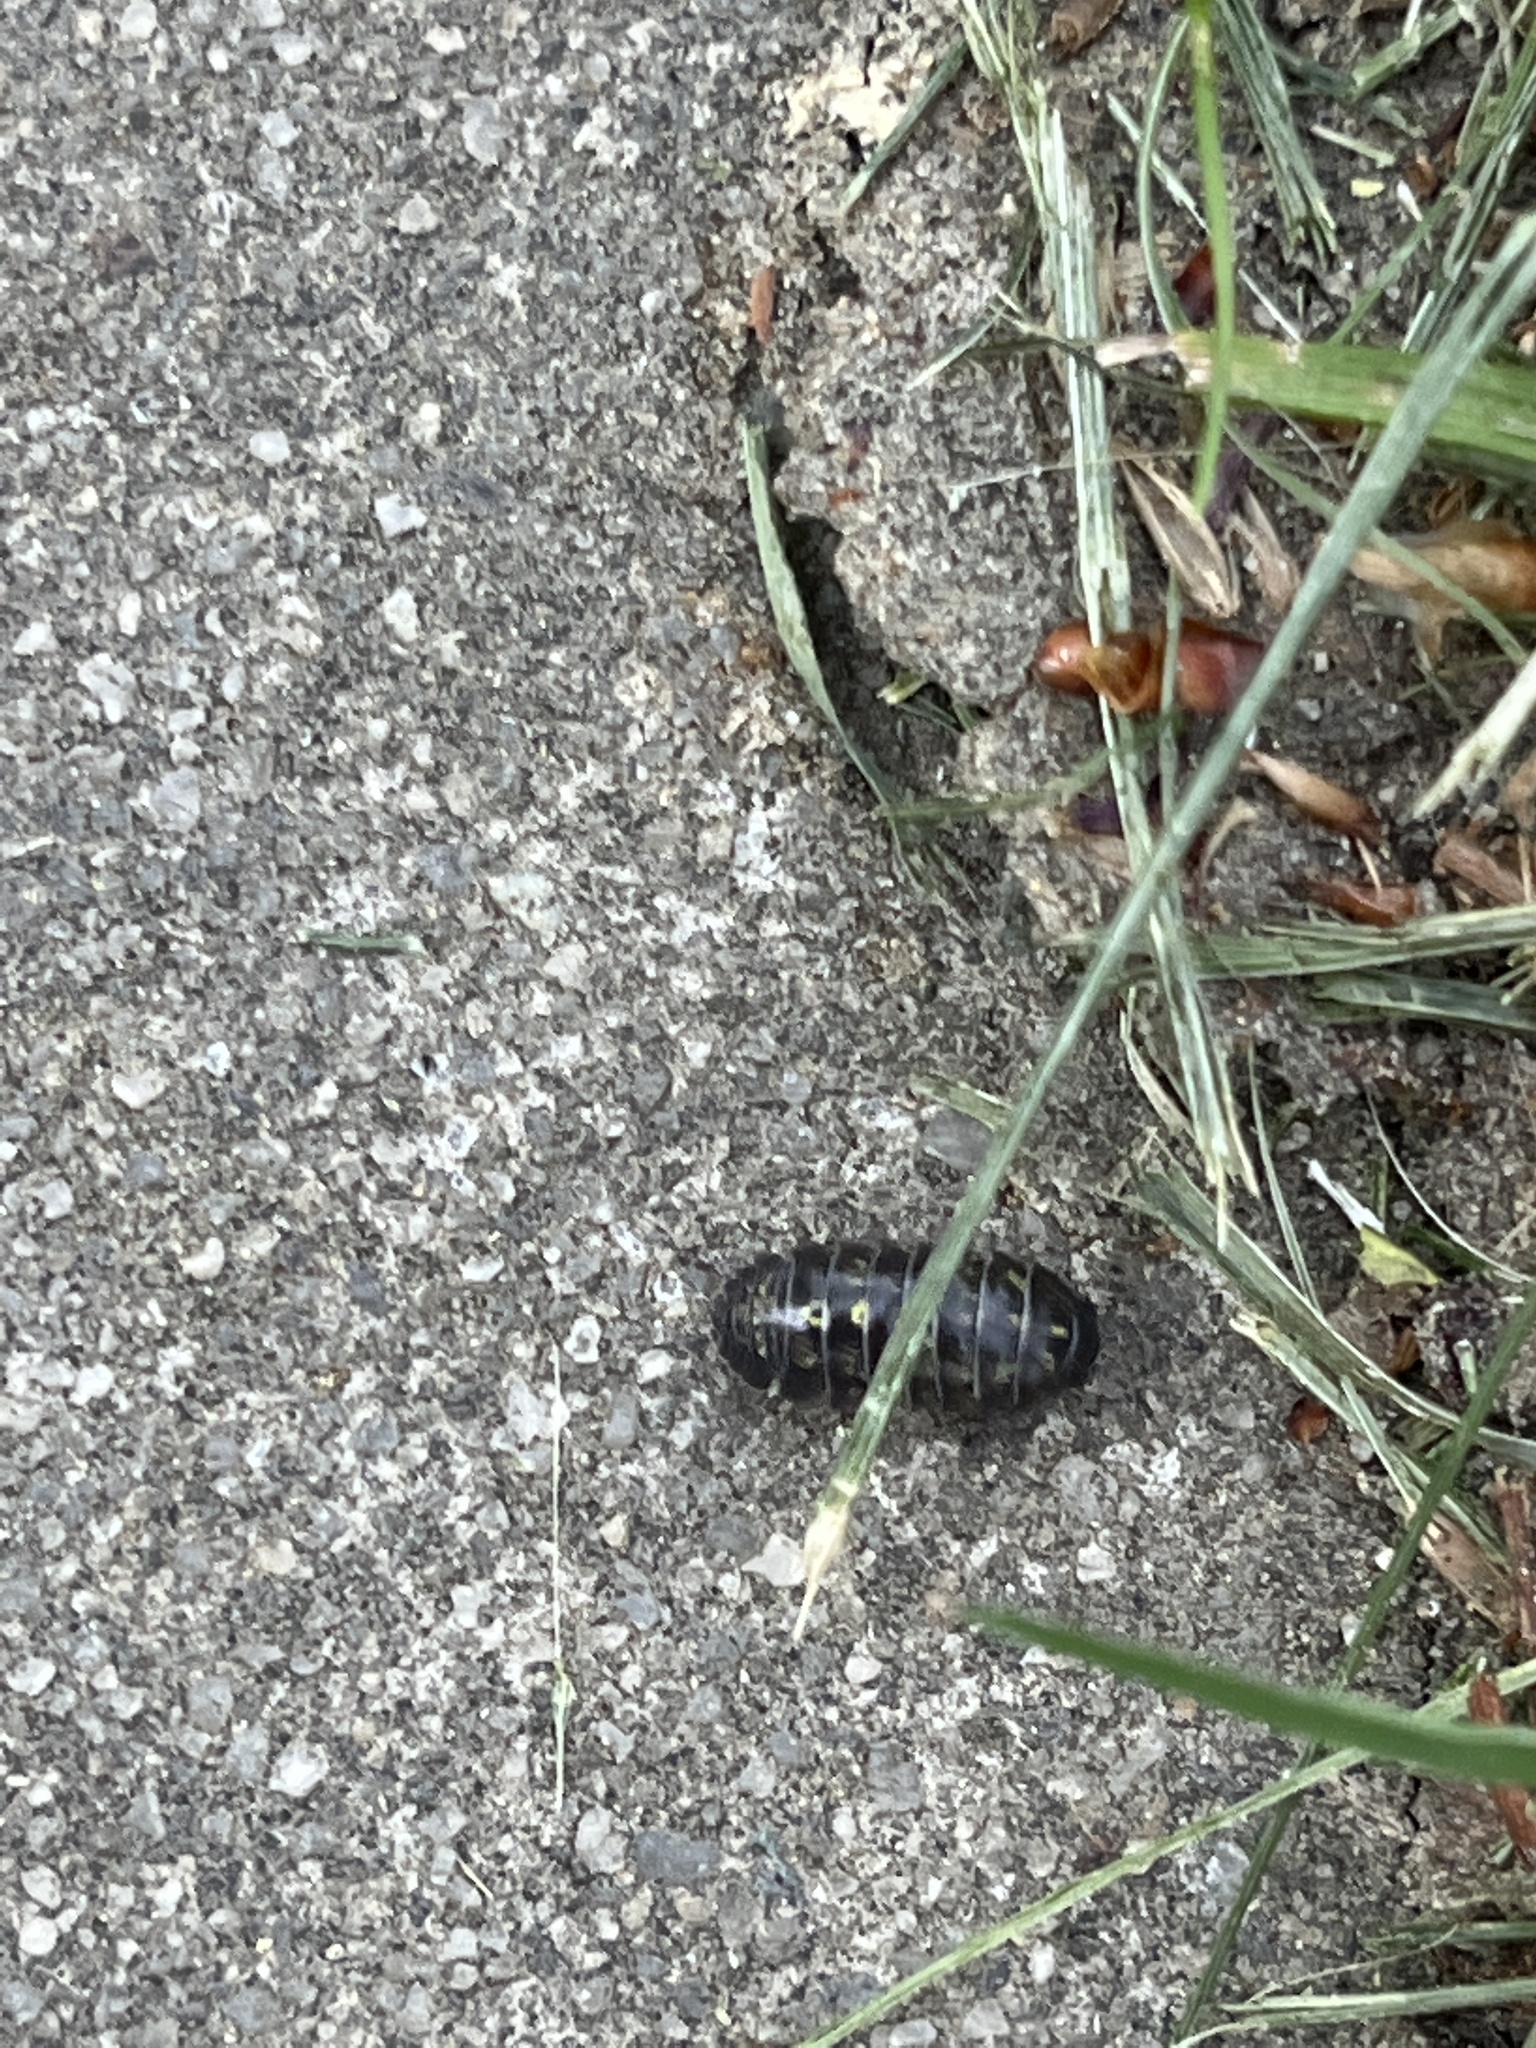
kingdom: Animalia
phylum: Arthropoda
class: Malacostraca
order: Isopoda
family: Armadillidiidae
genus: Armadillidium
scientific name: Armadillidium vulgare
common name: Common pill woodlouse
